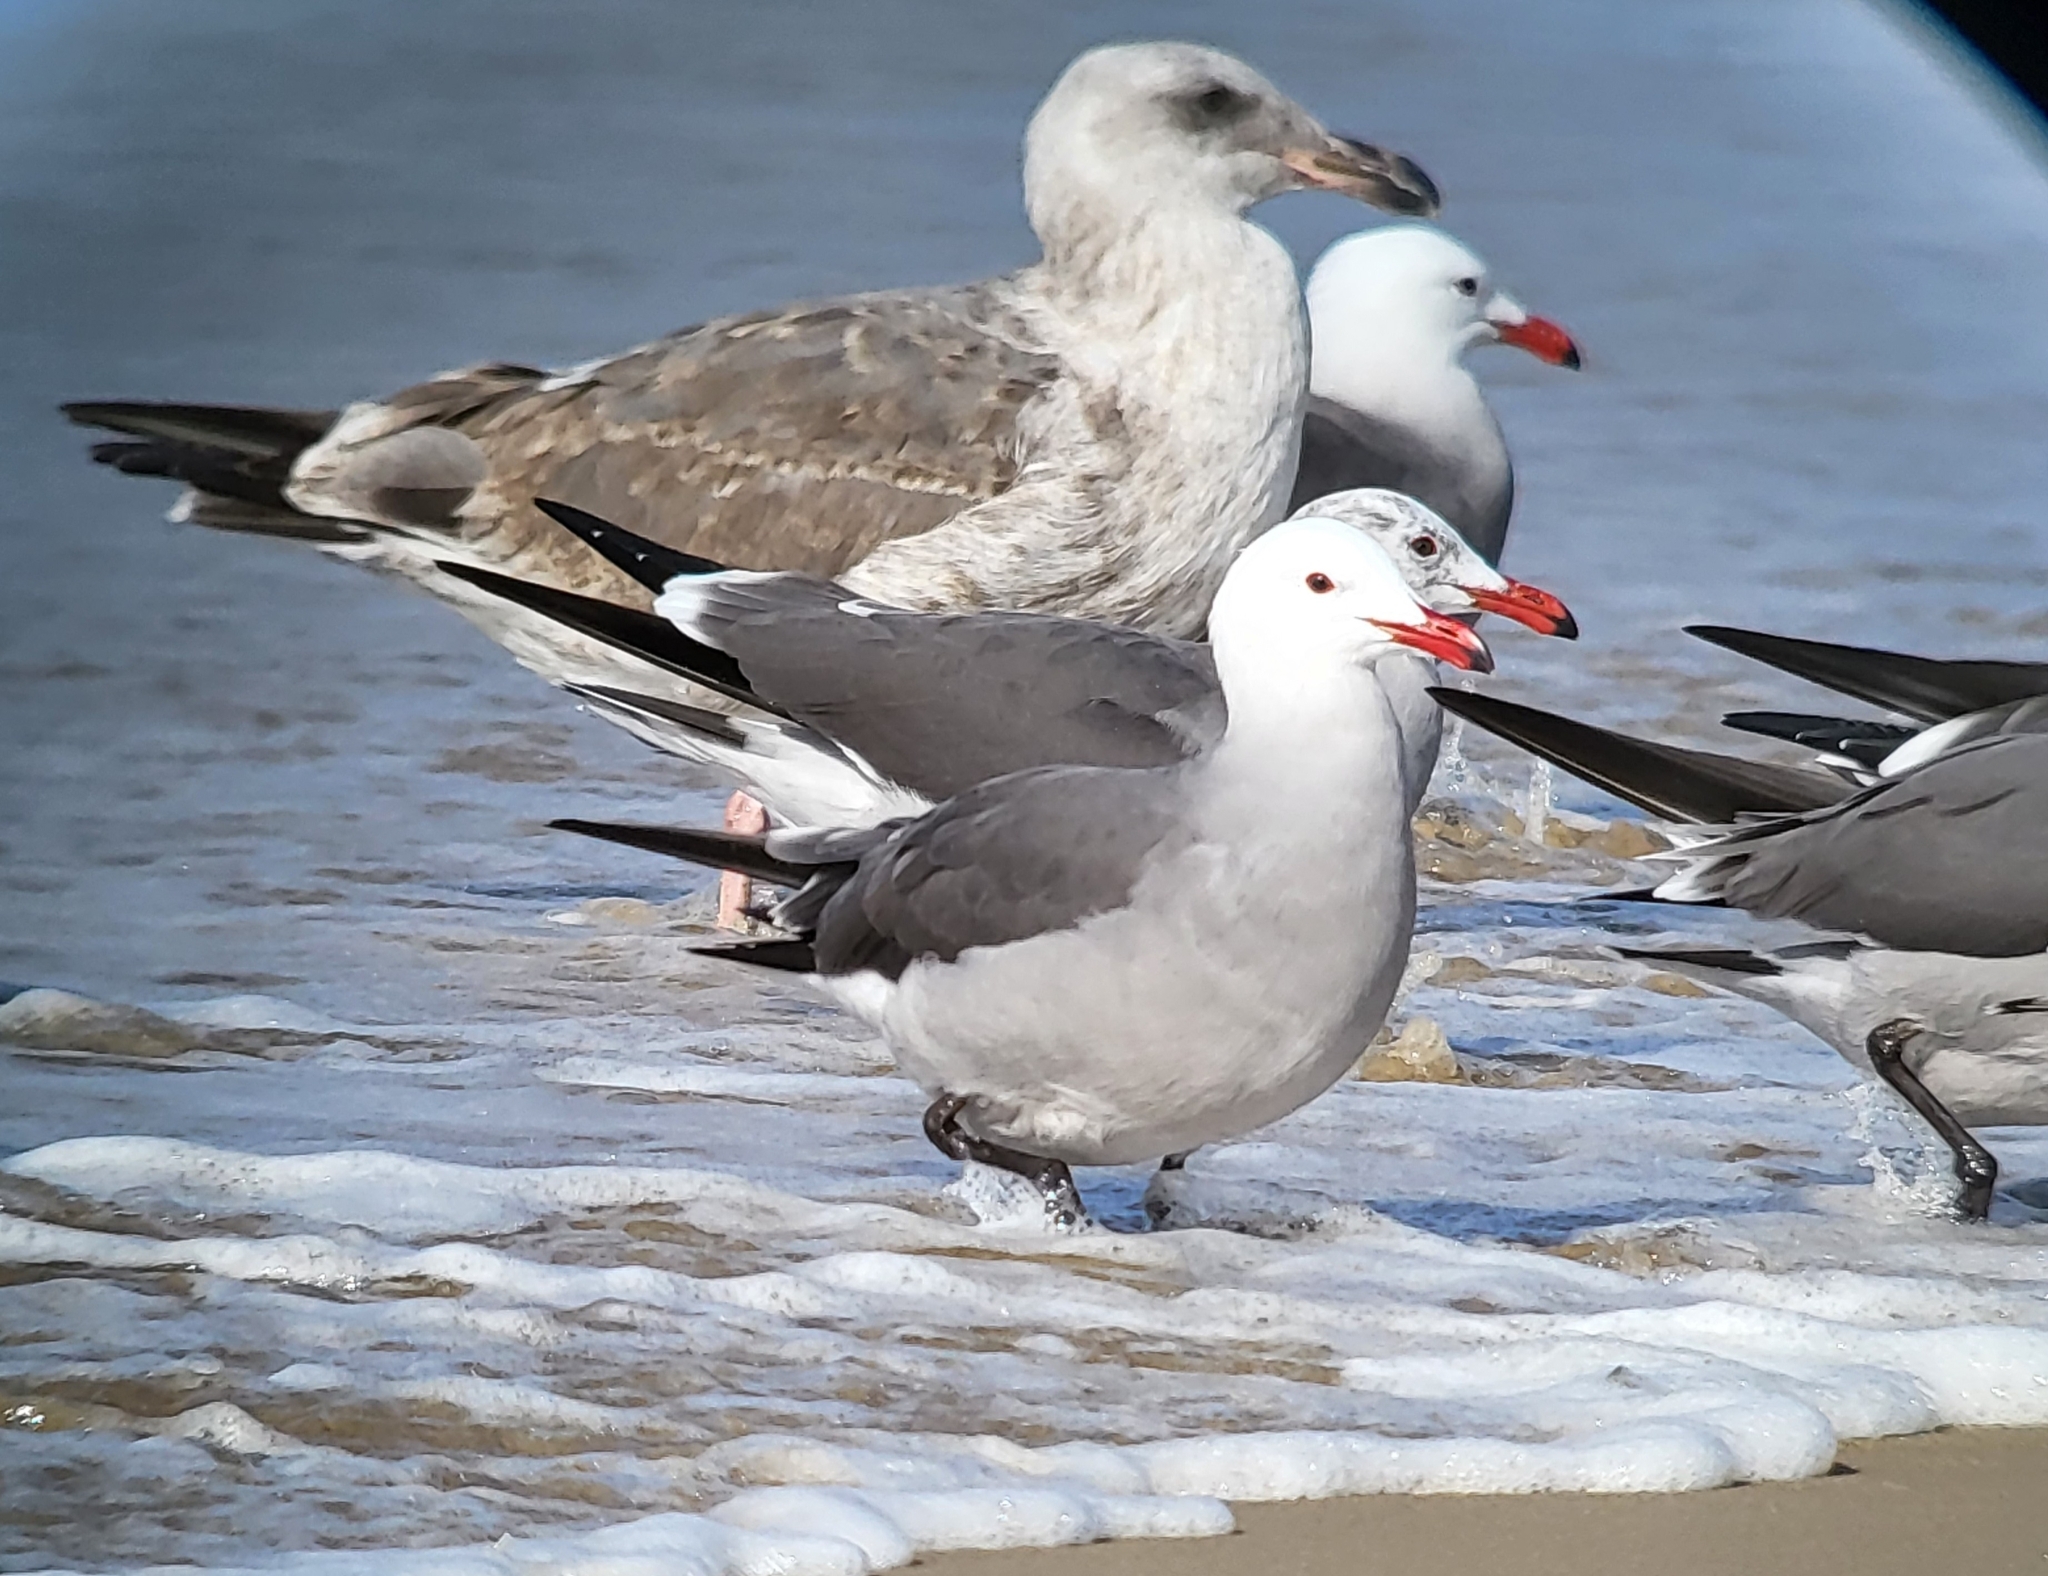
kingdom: Animalia
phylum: Chordata
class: Aves
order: Charadriiformes
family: Laridae
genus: Larus
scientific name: Larus heermanni
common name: Heermann's gull
